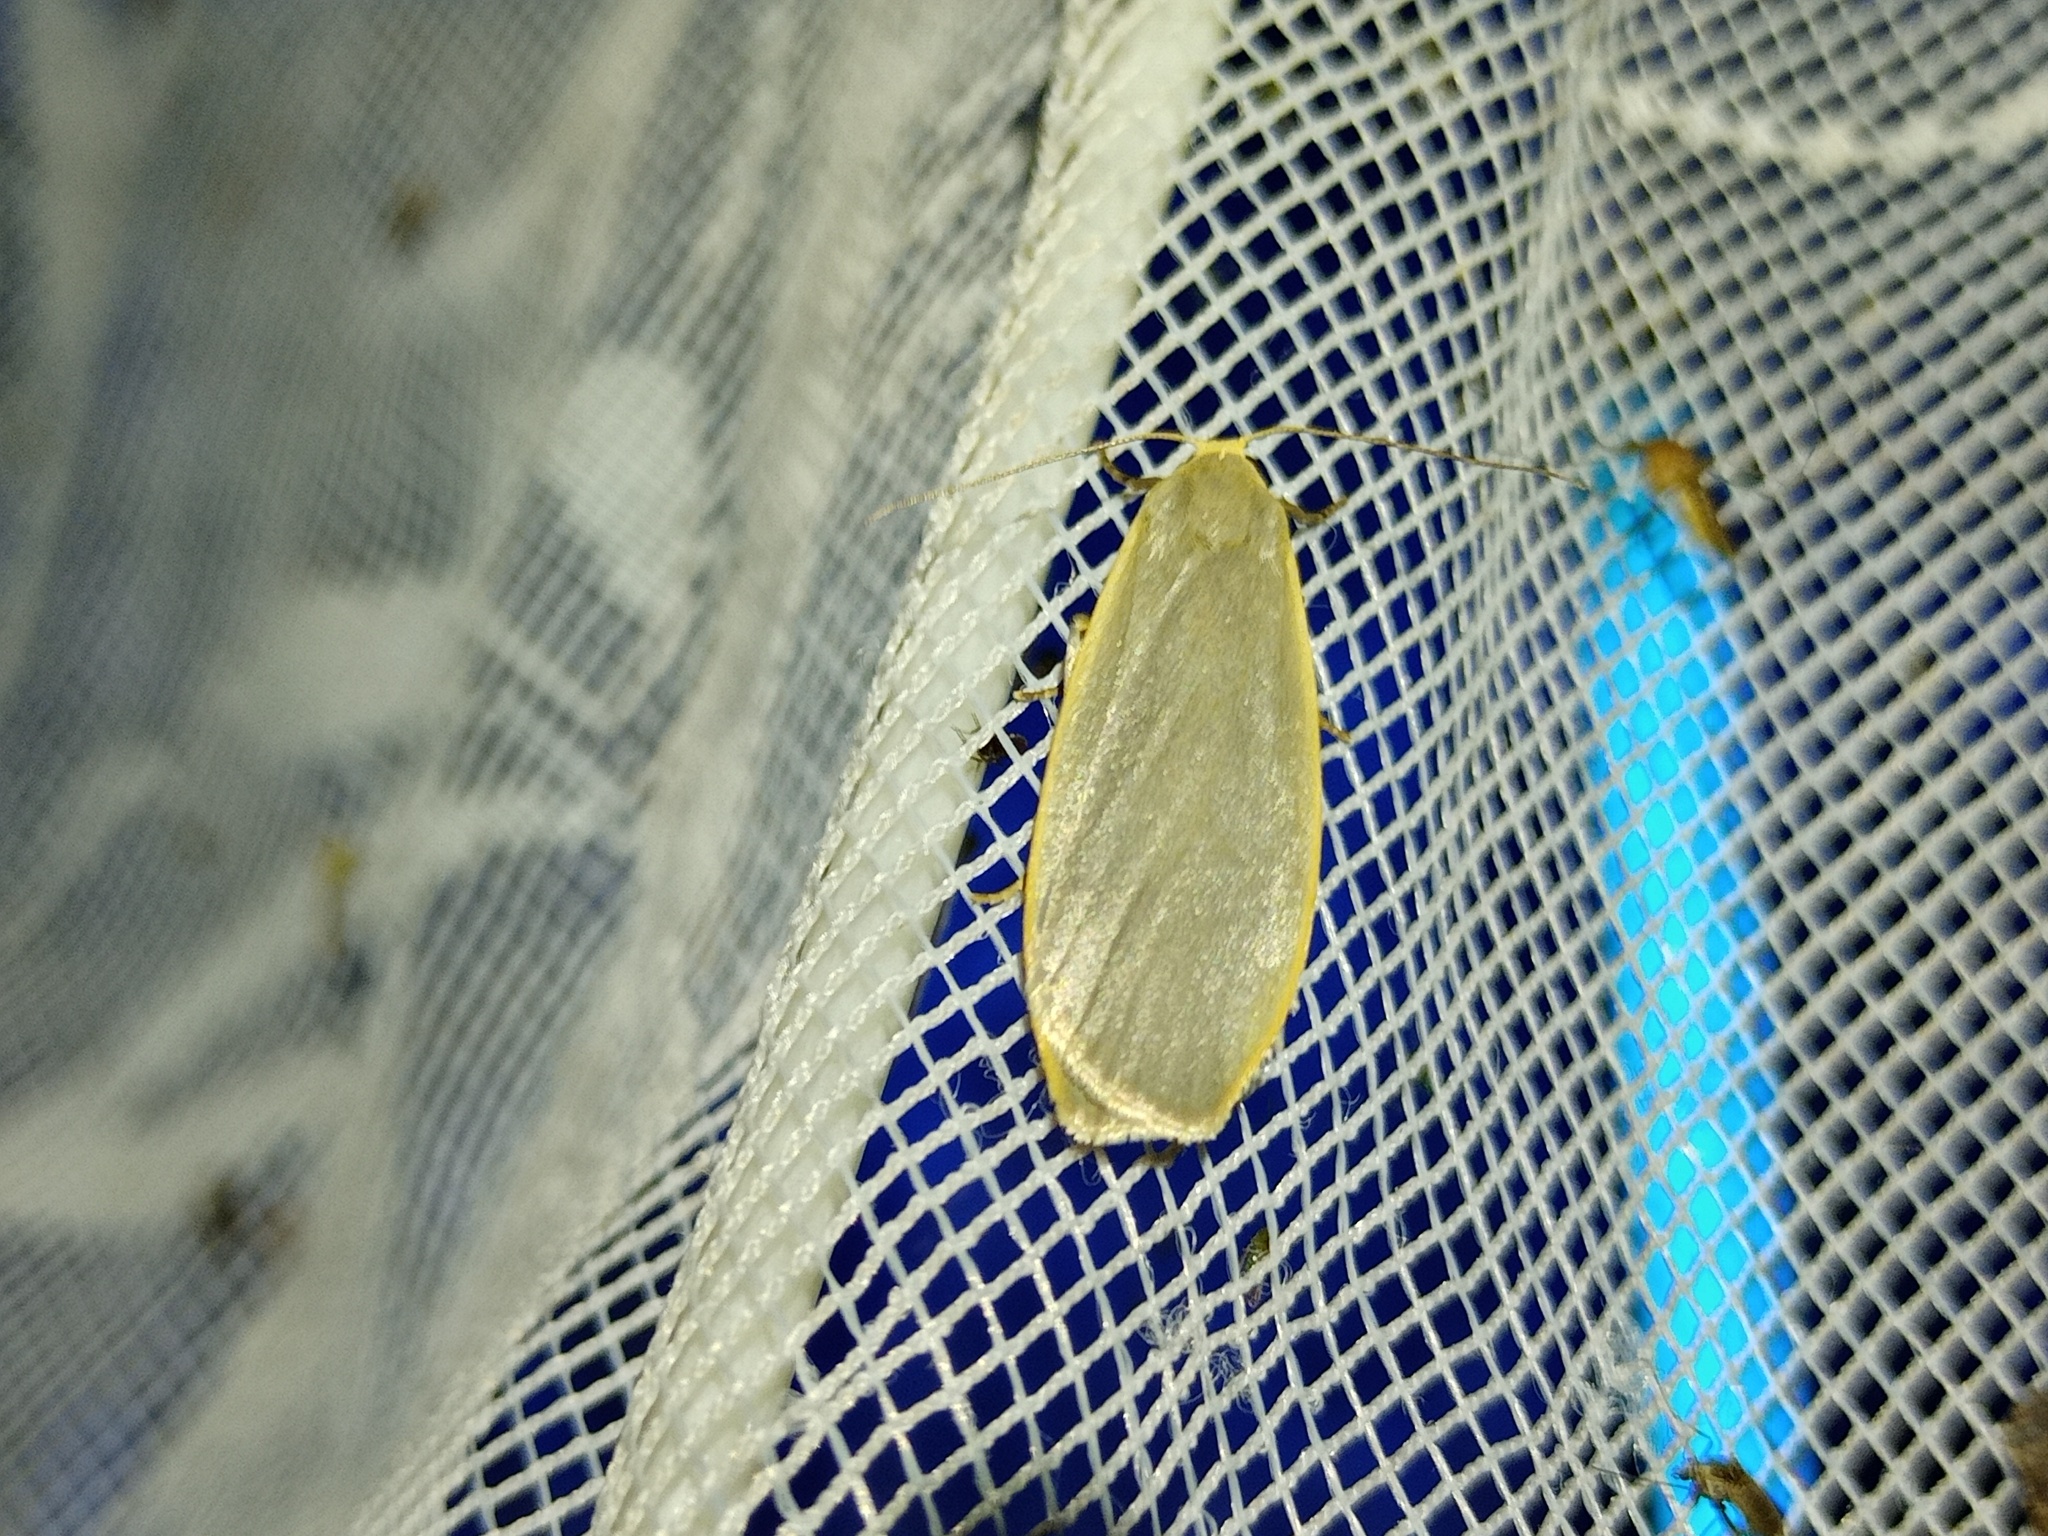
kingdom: Animalia
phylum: Arthropoda
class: Insecta
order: Lepidoptera
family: Erebidae
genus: Collita
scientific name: Collita griseola
